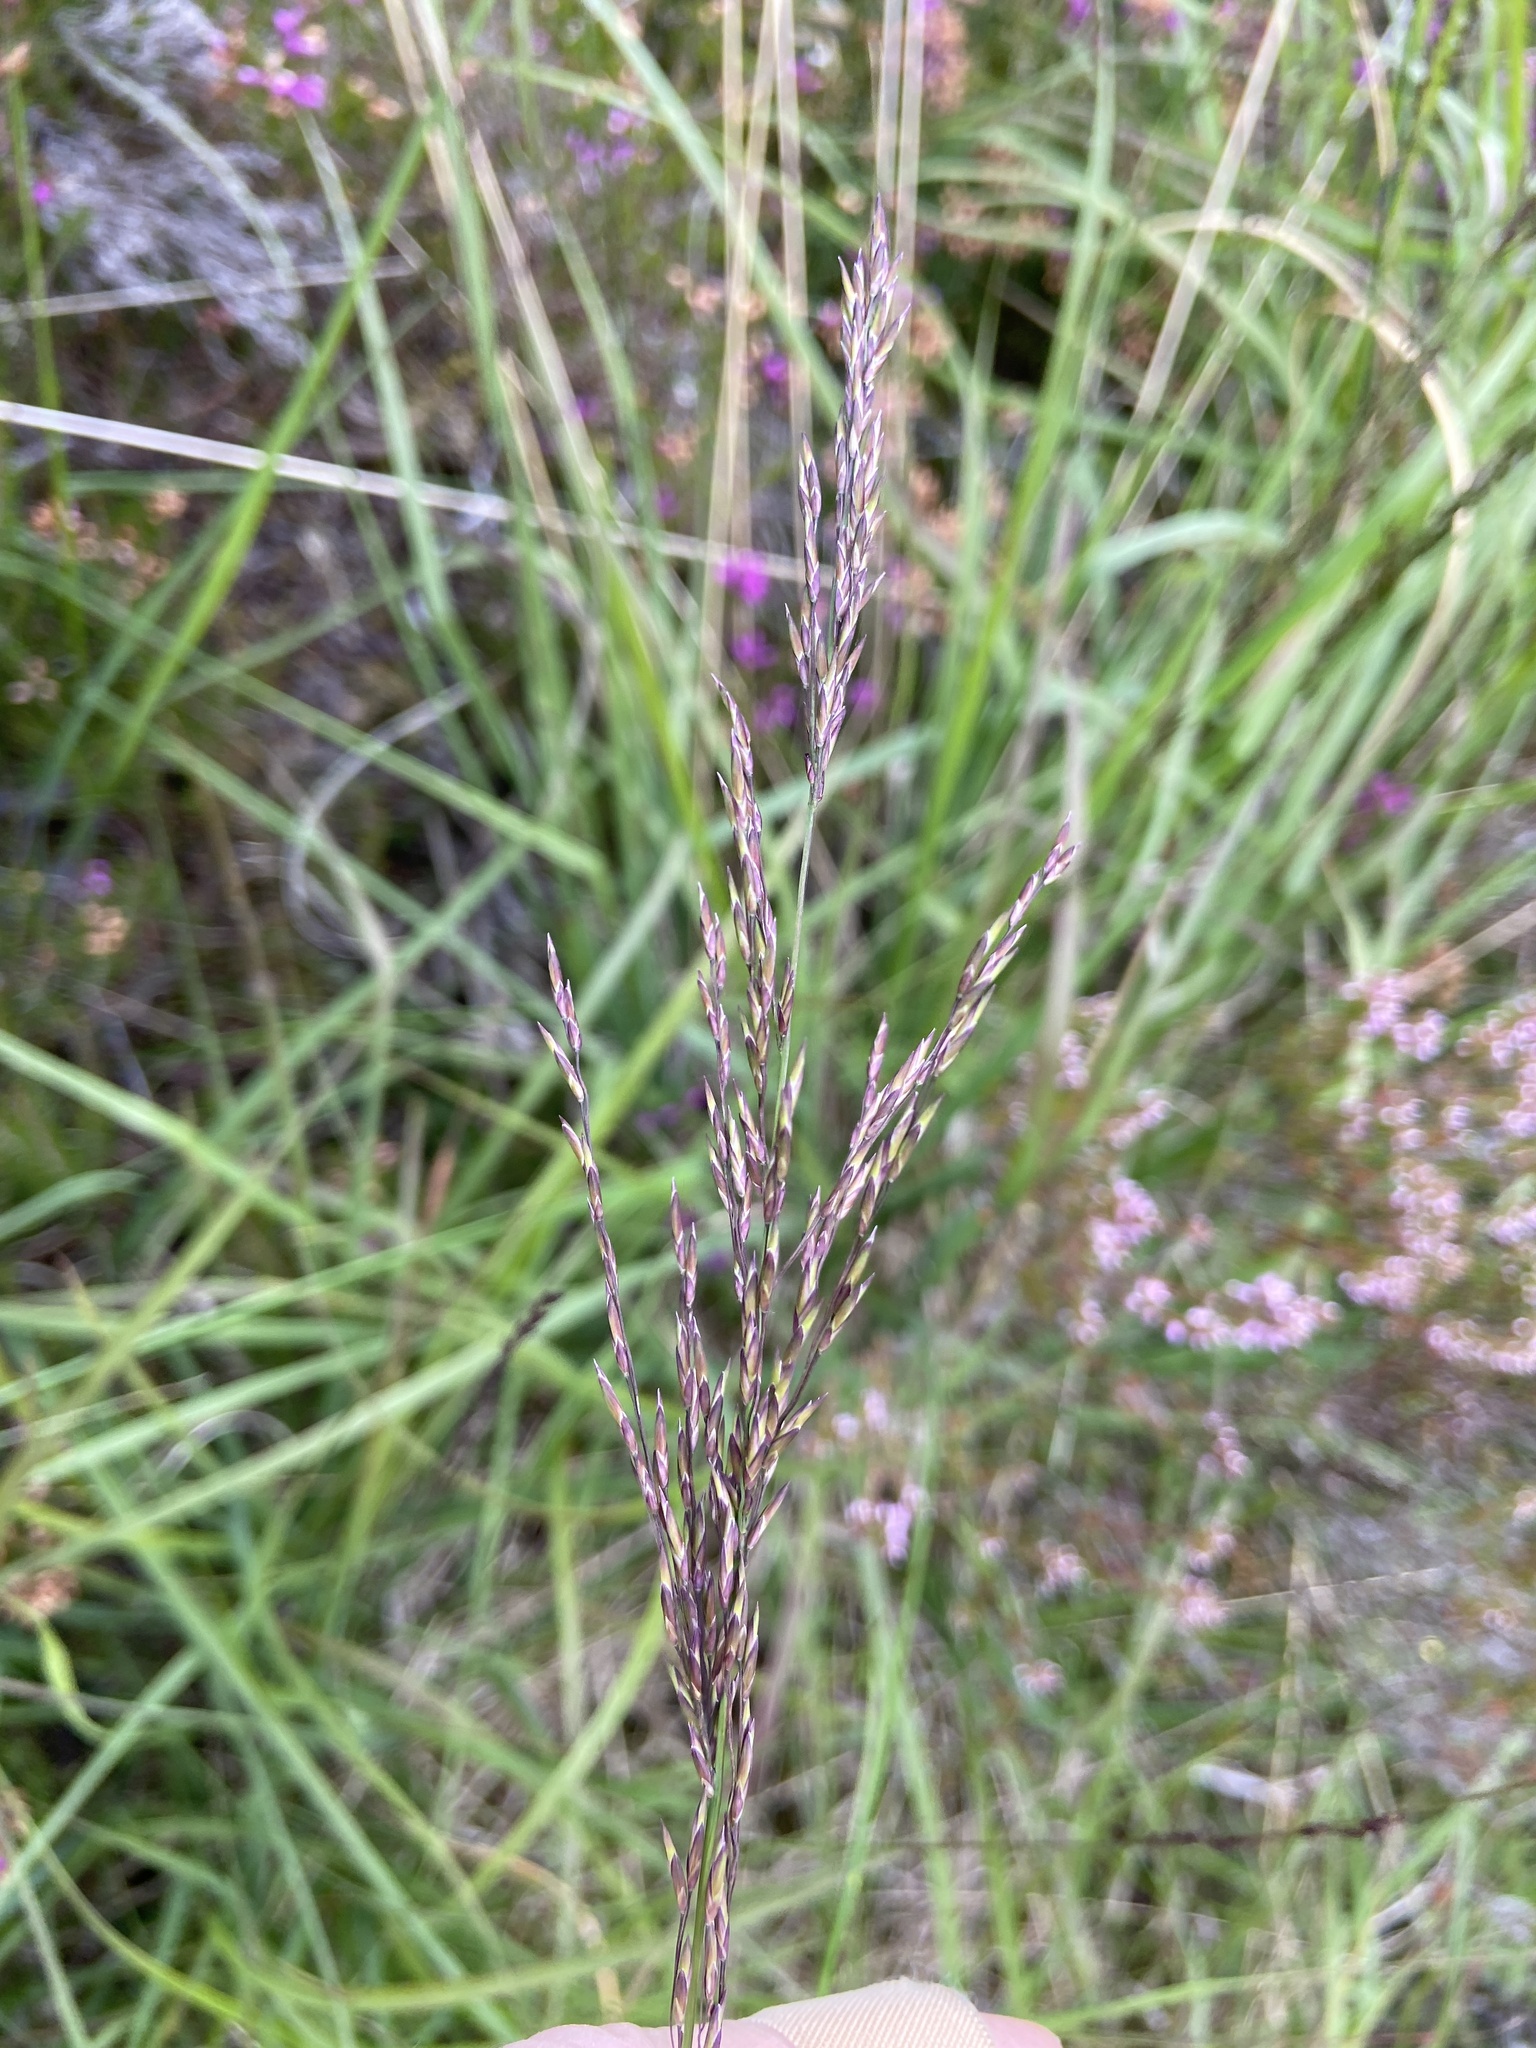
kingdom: Plantae
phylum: Tracheophyta
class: Liliopsida
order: Poales
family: Poaceae
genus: Molinia
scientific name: Molinia caerulea
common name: Purple moor-grass
